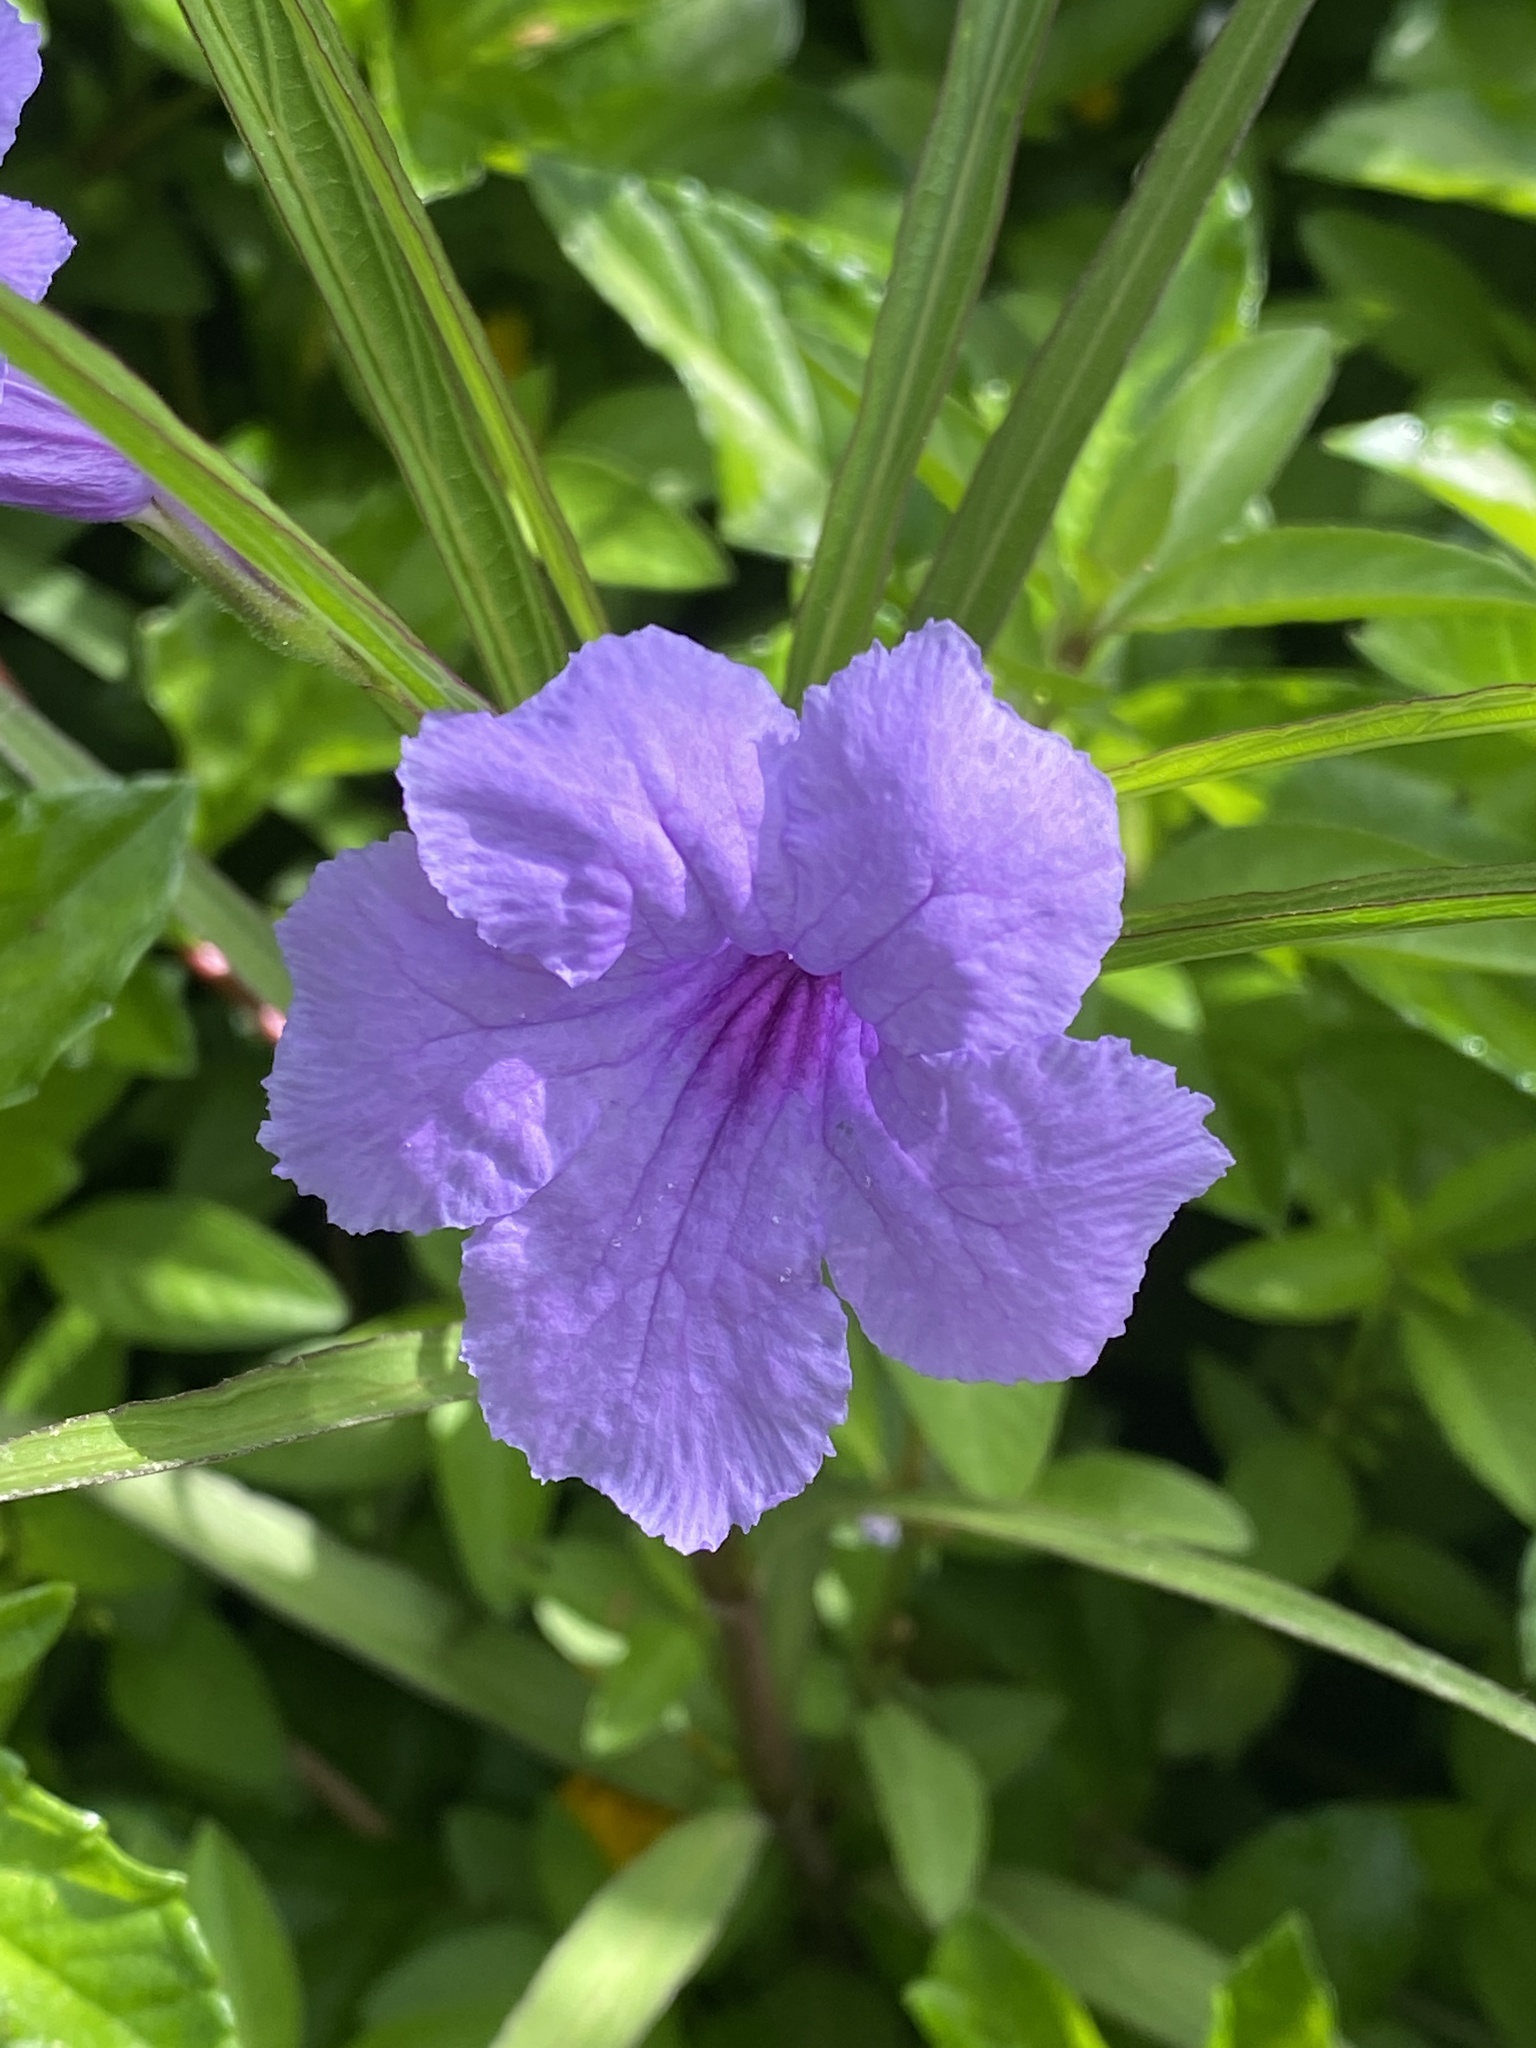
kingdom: Plantae
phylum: Tracheophyta
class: Magnoliopsida
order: Lamiales
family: Acanthaceae
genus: Ruellia
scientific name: Ruellia simplex
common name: Softseed wild petunia
